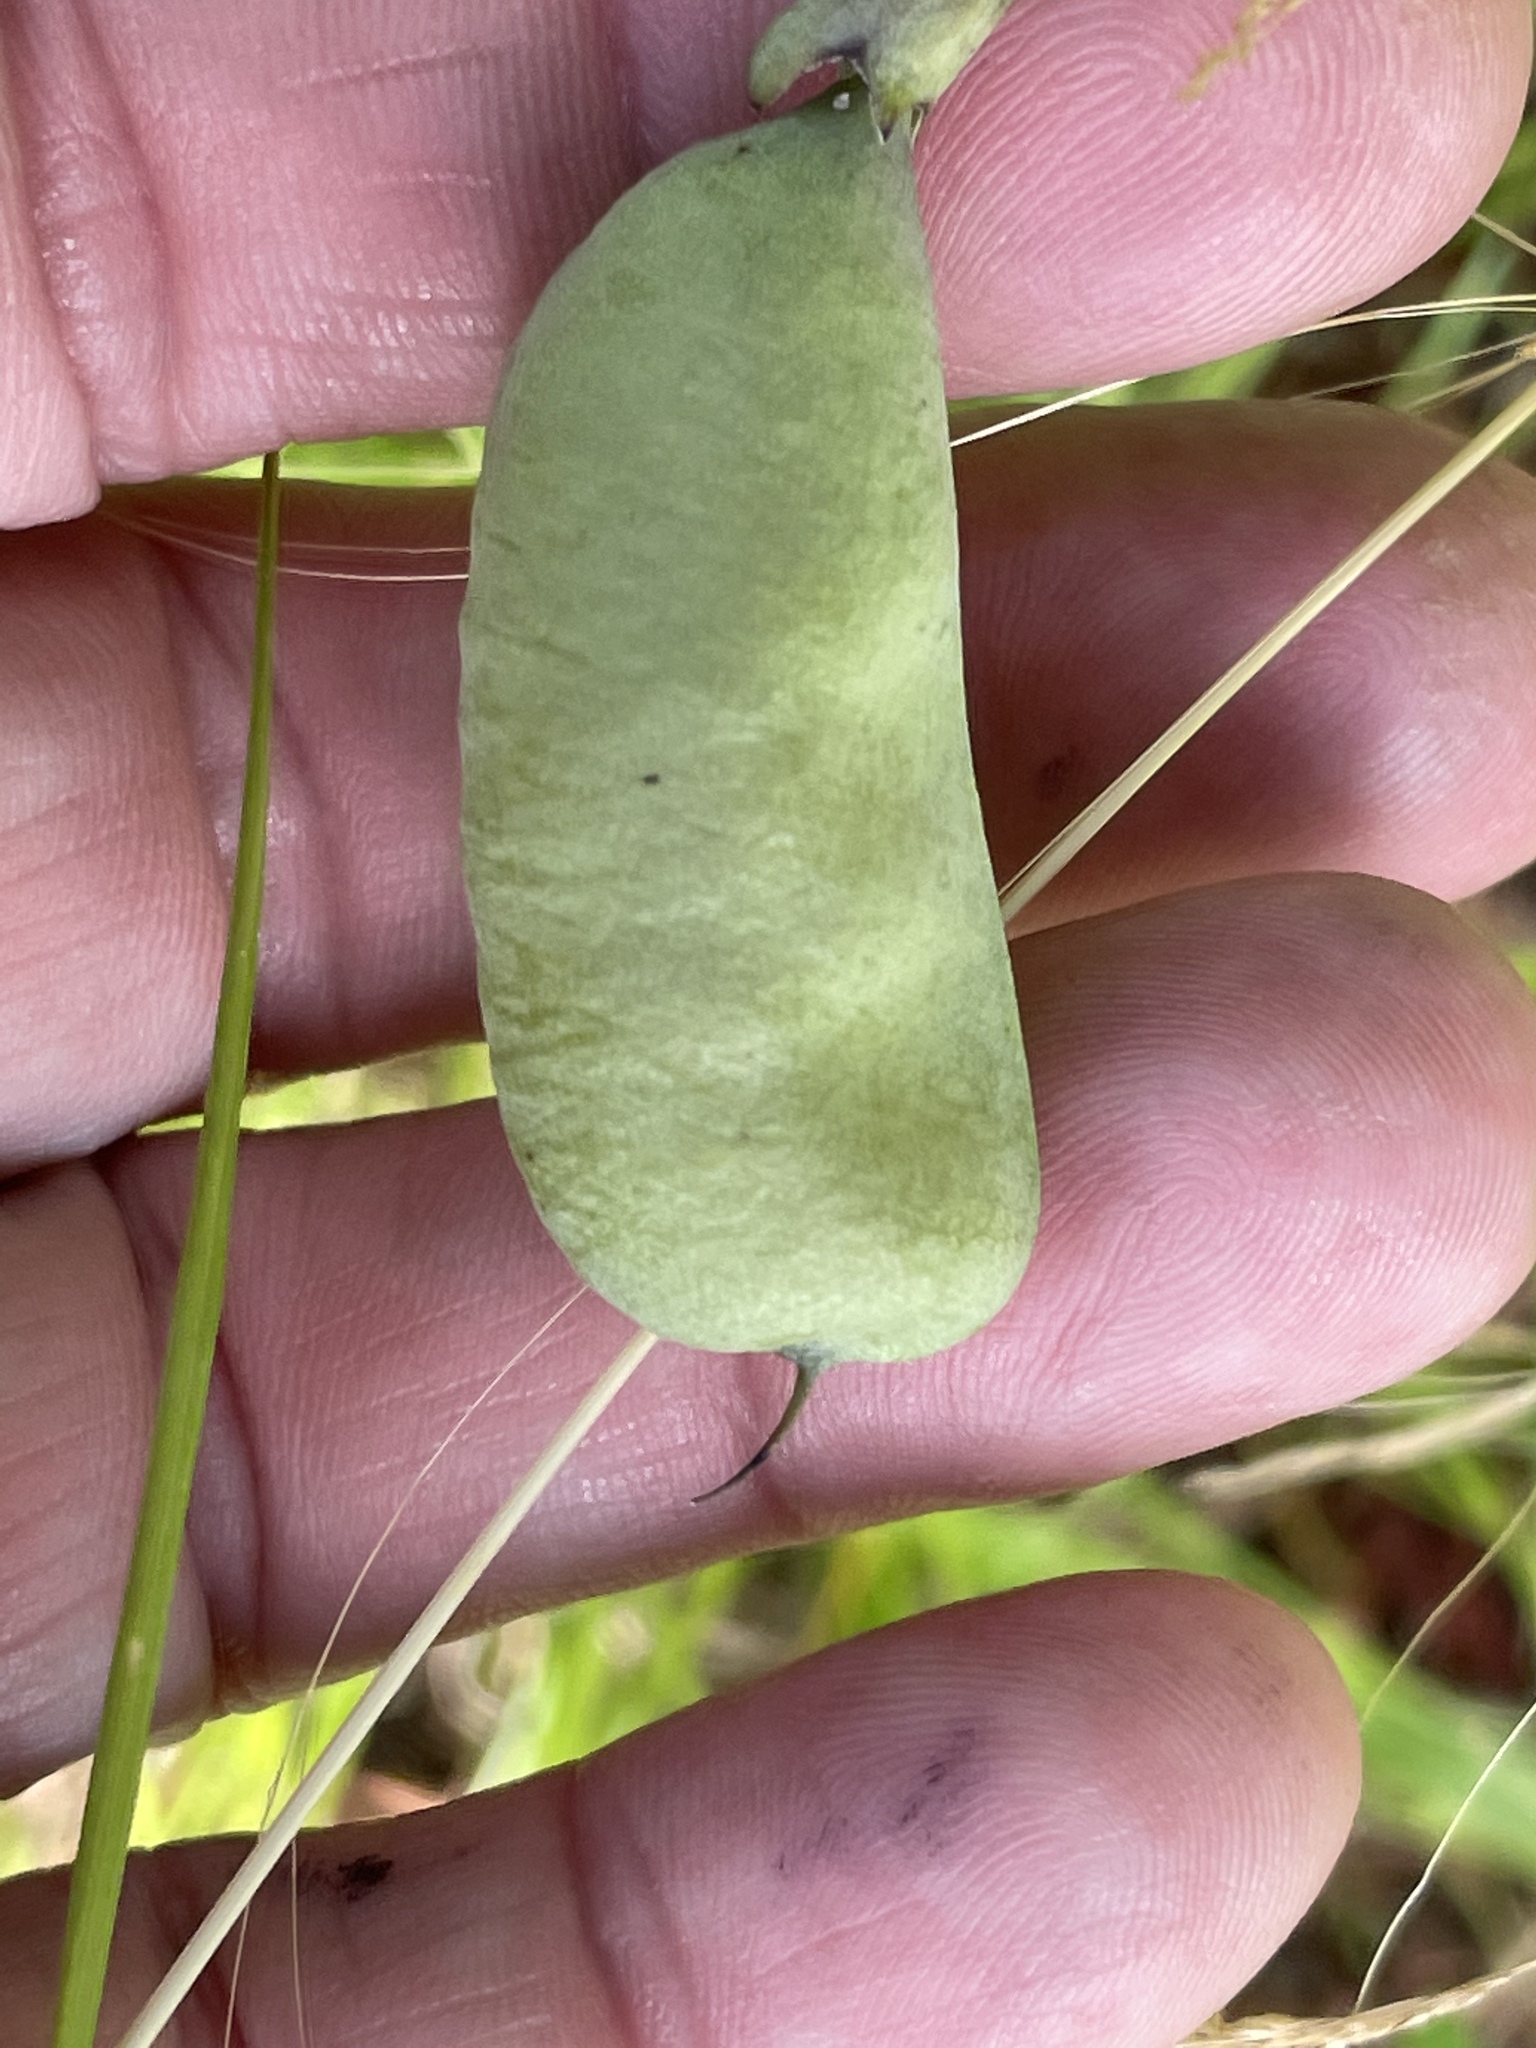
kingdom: Plantae
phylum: Tracheophyta
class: Magnoliopsida
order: Fabales
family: Fabaceae
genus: Baptisia
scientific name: Baptisia alba
